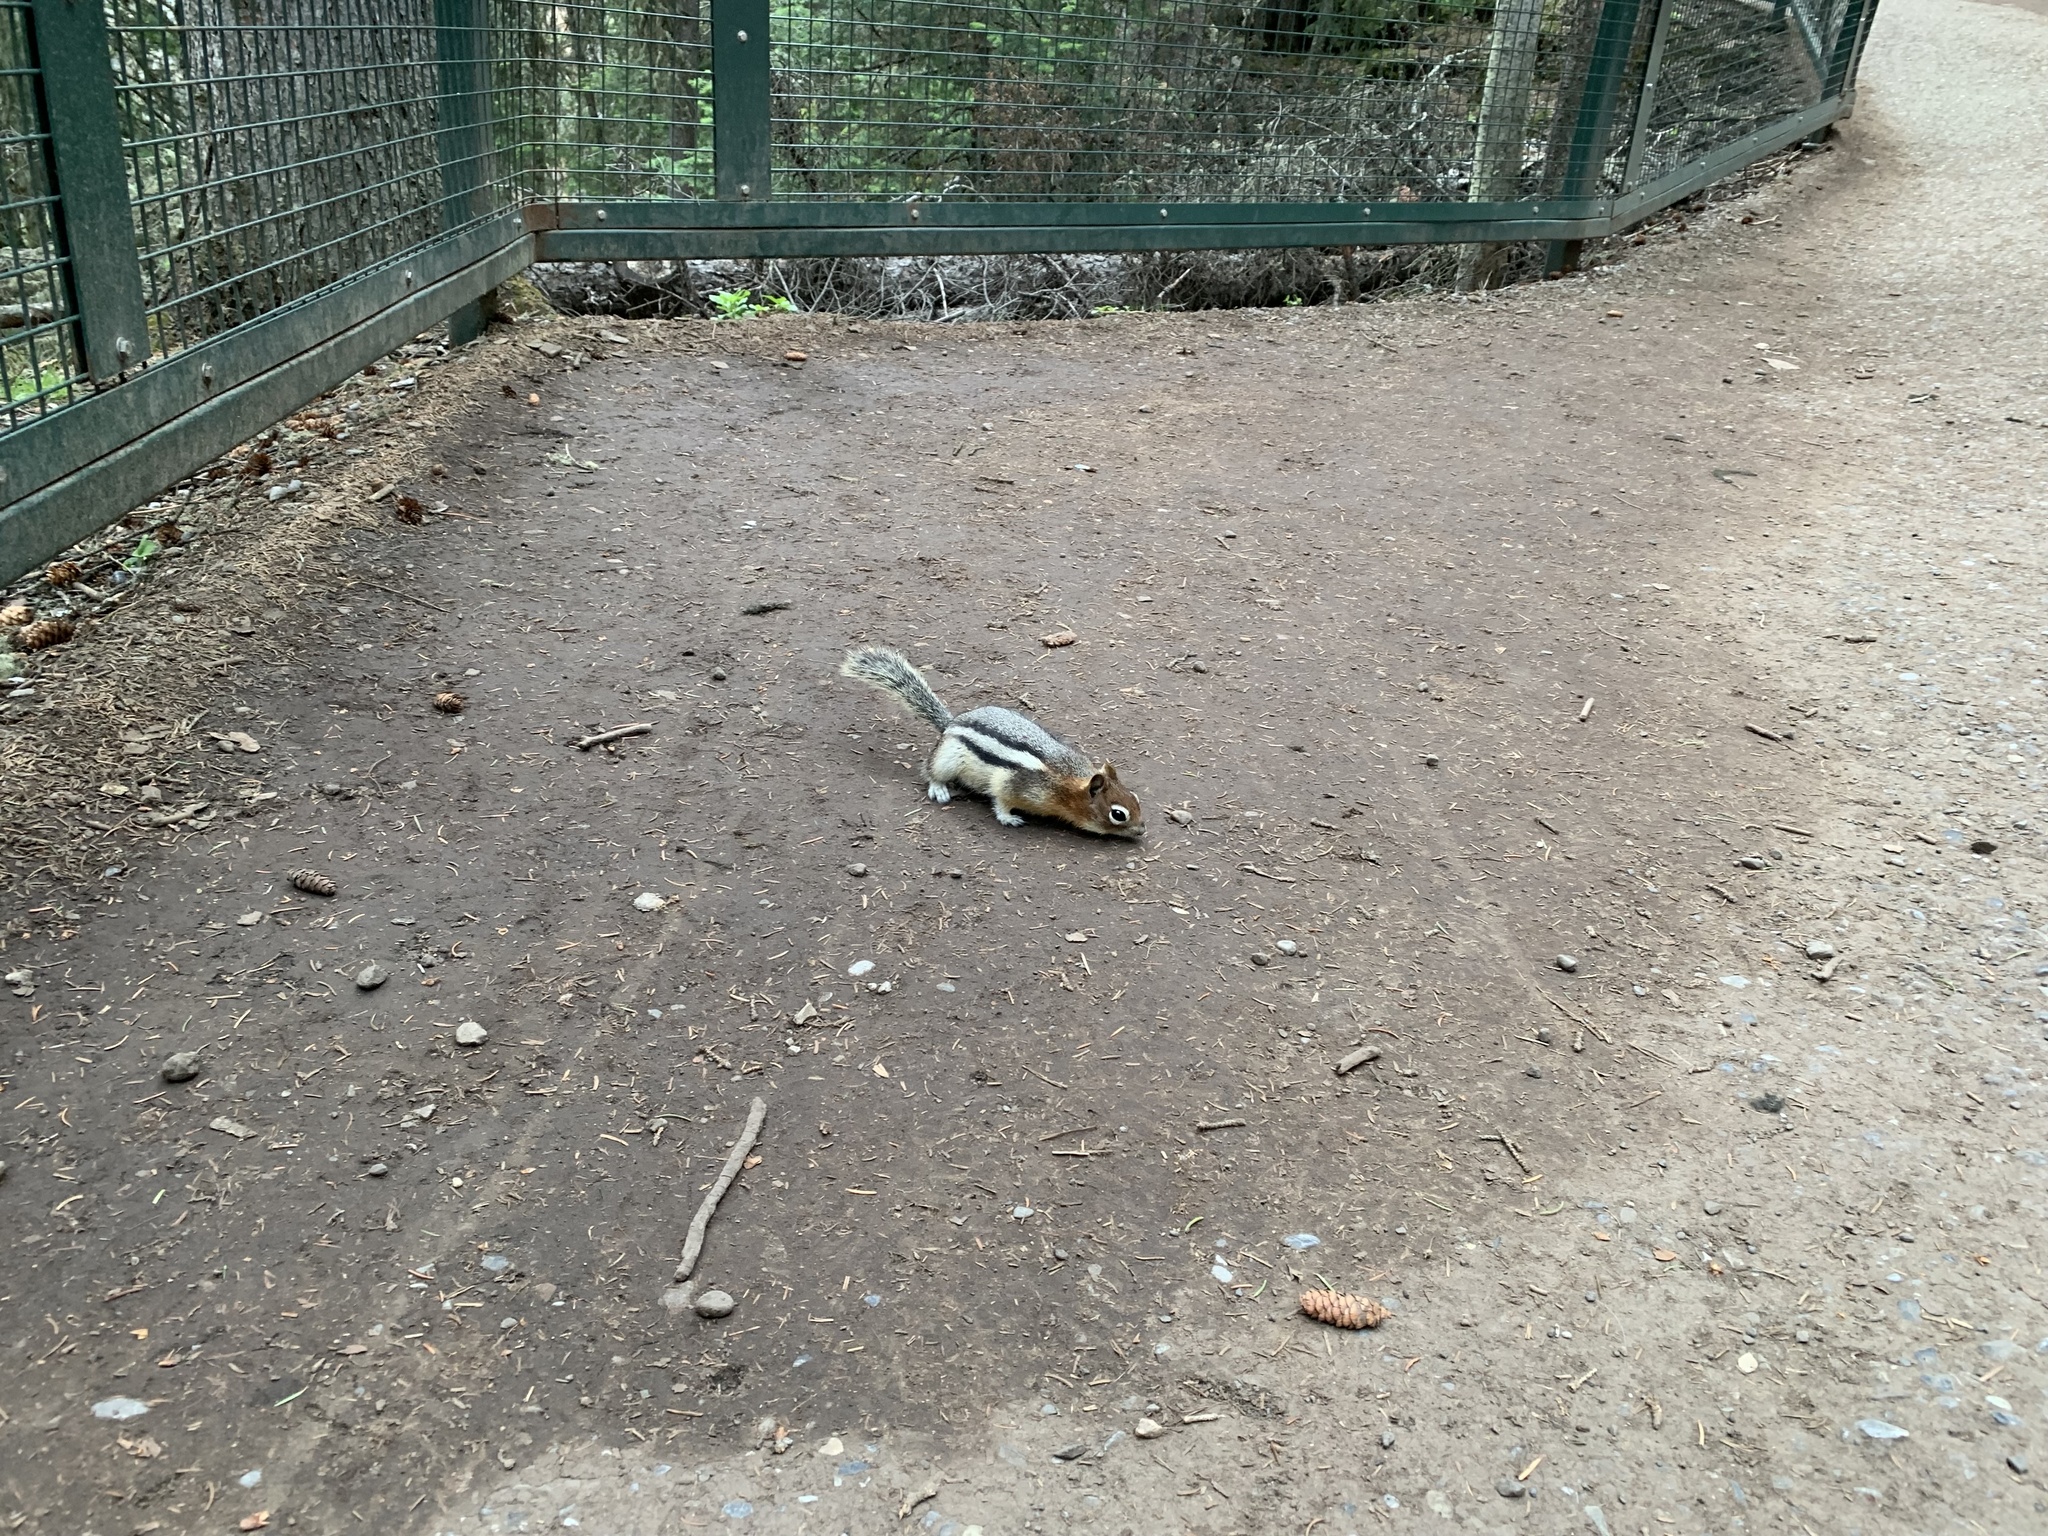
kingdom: Animalia
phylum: Chordata
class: Mammalia
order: Rodentia
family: Sciuridae
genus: Callospermophilus
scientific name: Callospermophilus lateralis
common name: Golden-mantled ground squirrel
